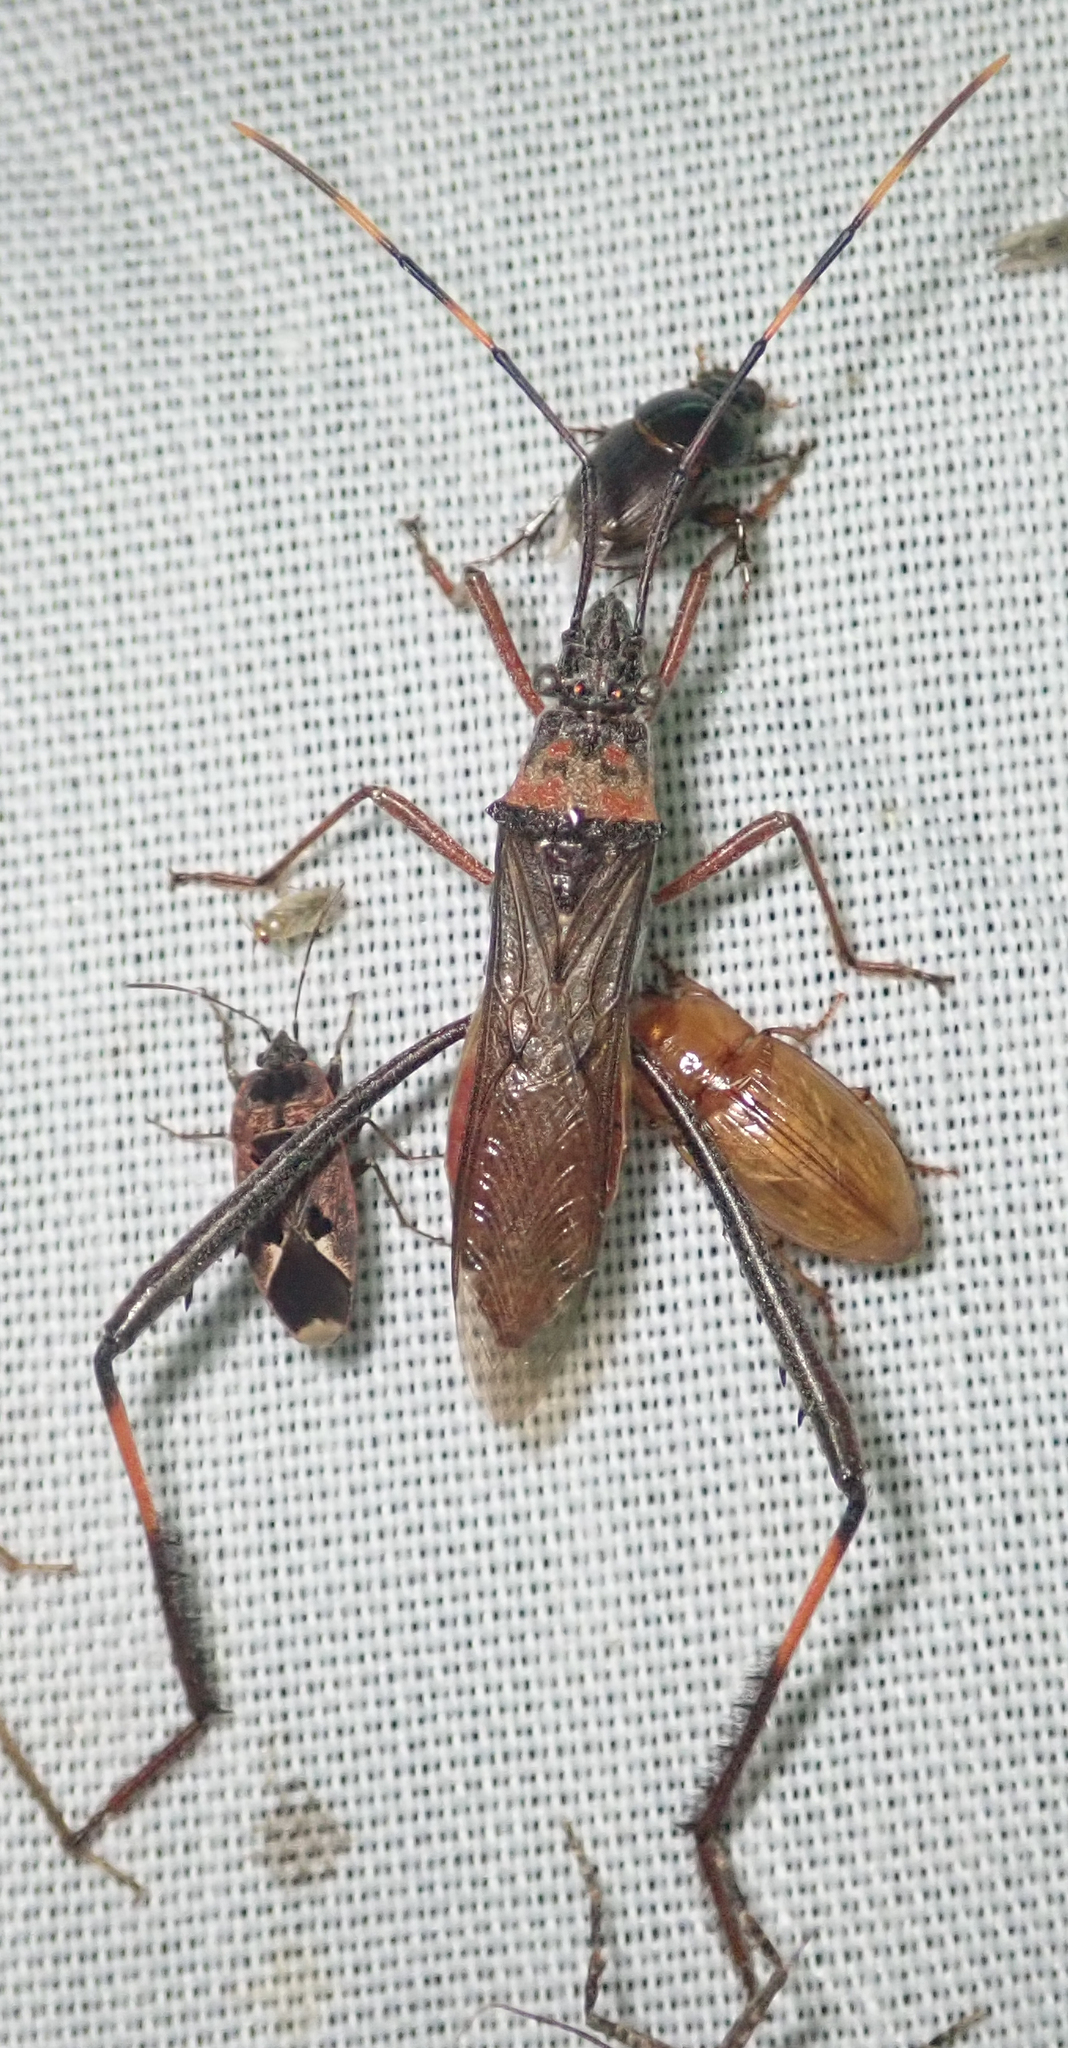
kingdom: Animalia
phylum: Arthropoda
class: Insecta
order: Hemiptera
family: Alydidae
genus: Hypselopus
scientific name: Hypselopus gigas
